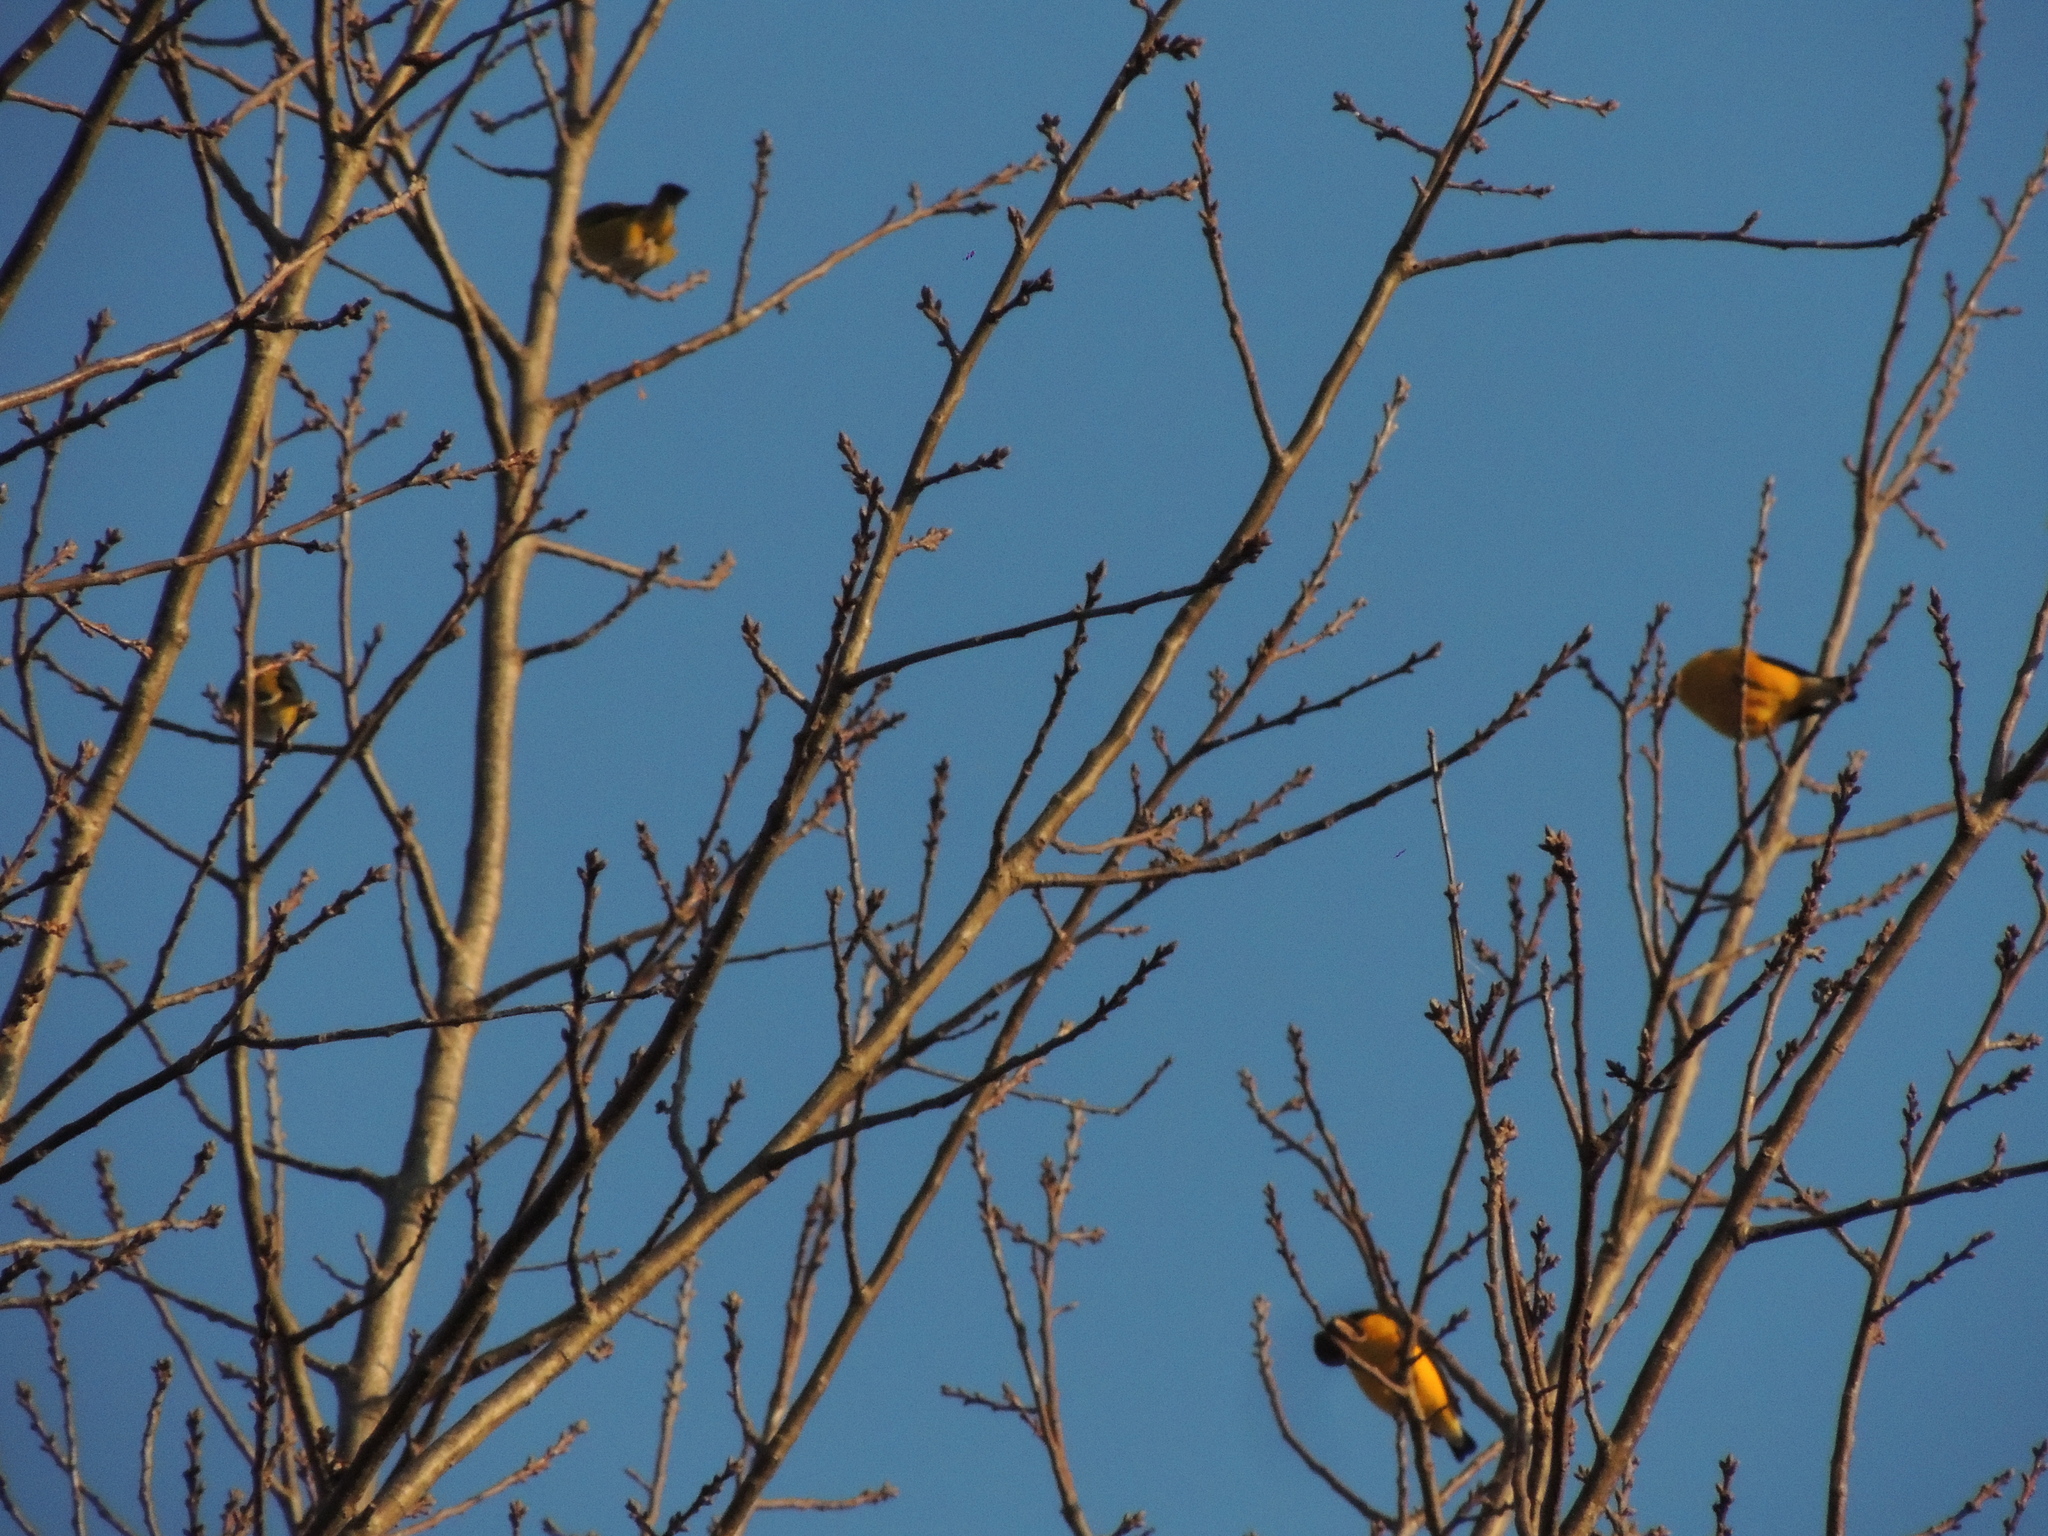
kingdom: Animalia
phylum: Chordata
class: Aves
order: Passeriformes
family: Fringillidae
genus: Euphonia
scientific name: Euphonia chlorotica
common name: Purple-throated euphonia
